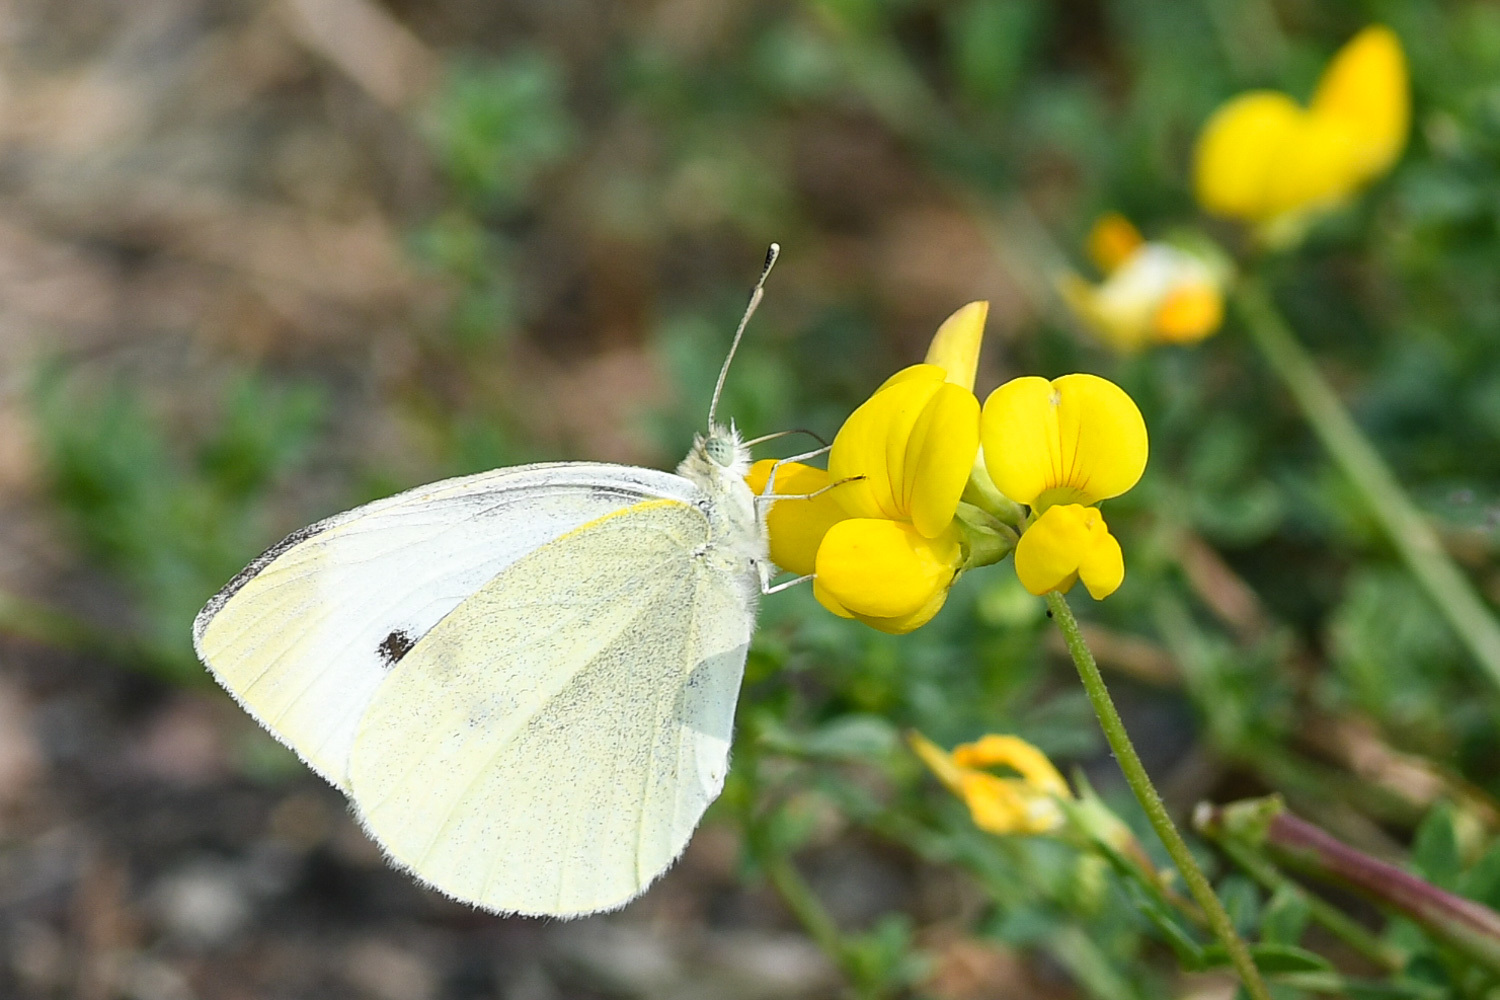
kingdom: Animalia
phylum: Arthropoda
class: Insecta
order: Lepidoptera
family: Pieridae
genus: Pieris
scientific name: Pieris rapae
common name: Small white
